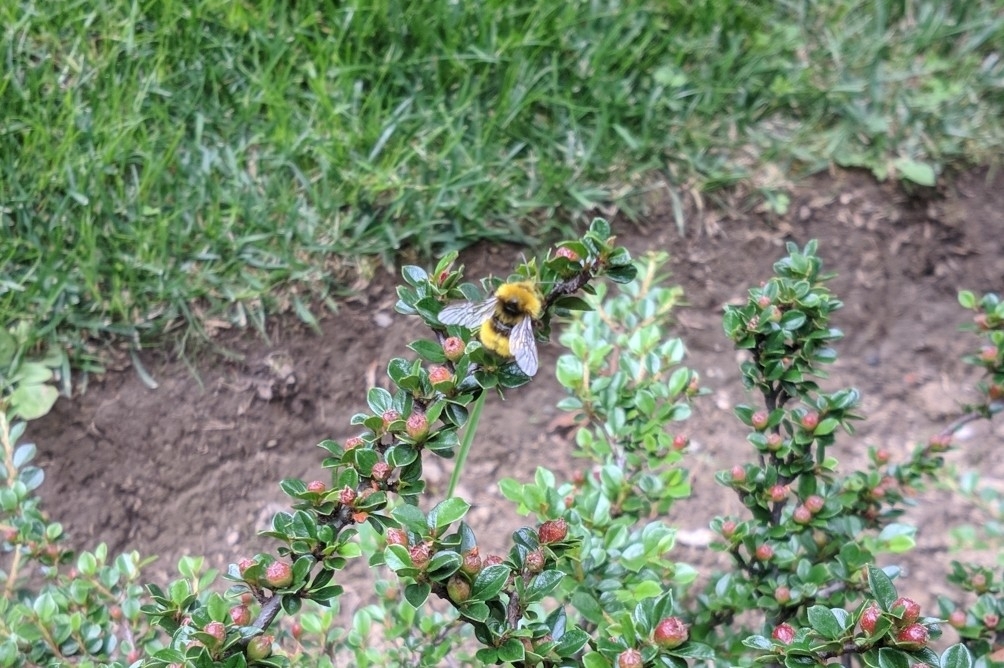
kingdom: Animalia
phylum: Arthropoda
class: Insecta
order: Hymenoptera
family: Apidae
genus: Bombus
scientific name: Bombus haematurus
